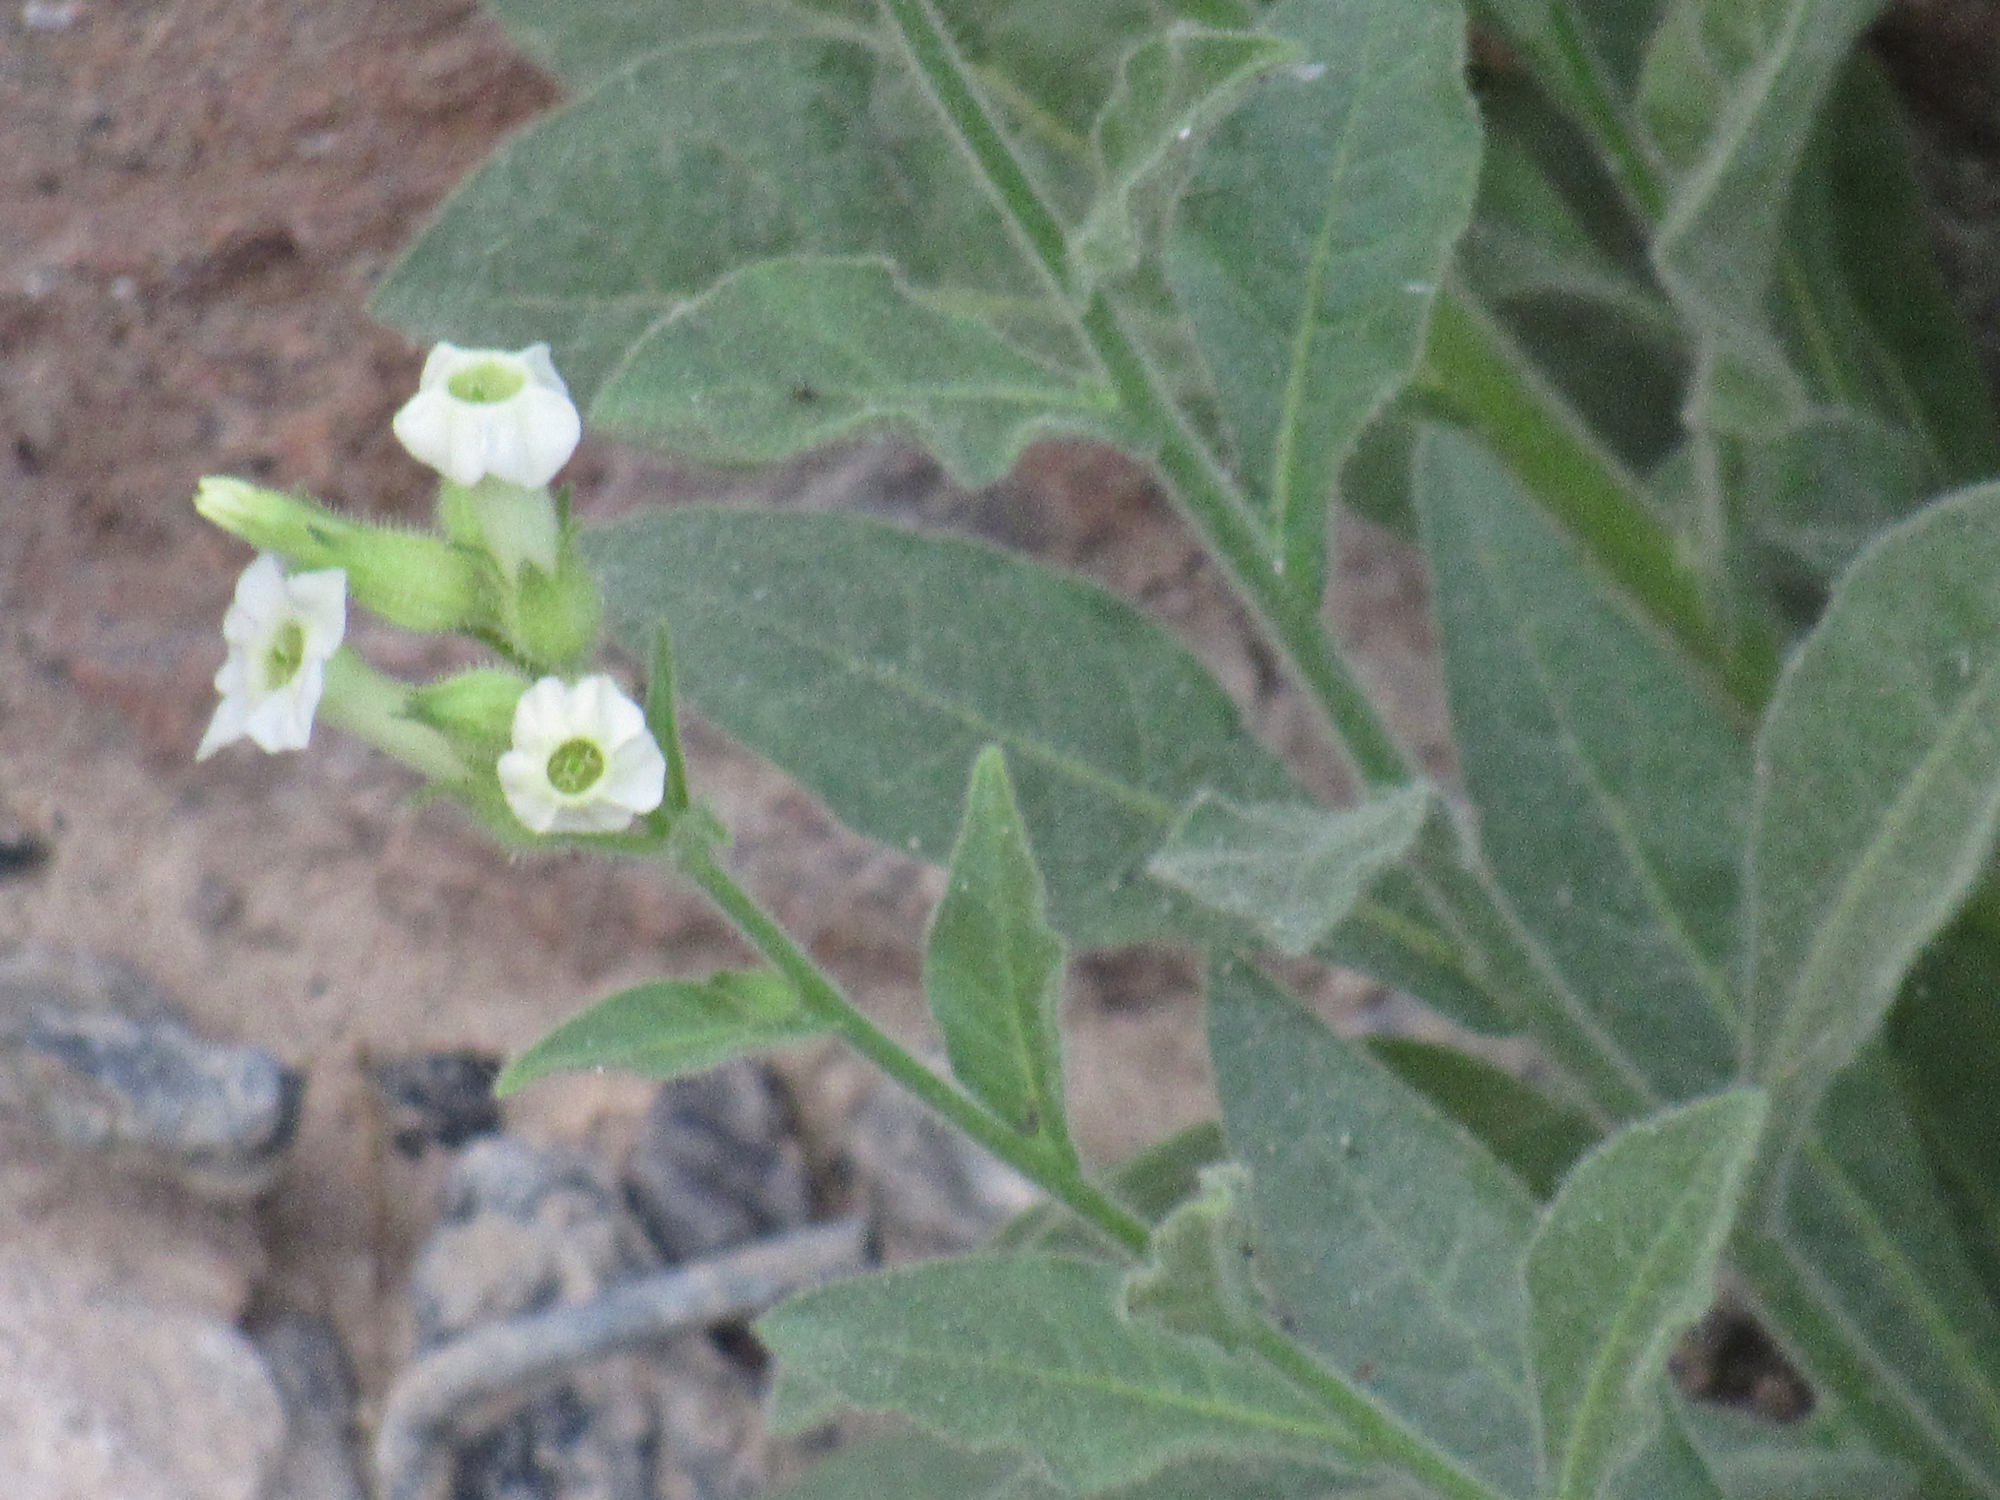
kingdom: Plantae
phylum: Tracheophyta
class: Magnoliopsida
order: Solanales
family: Solanaceae
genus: Nicotiana
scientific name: Nicotiana obtusifolia
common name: Desert tobacco
